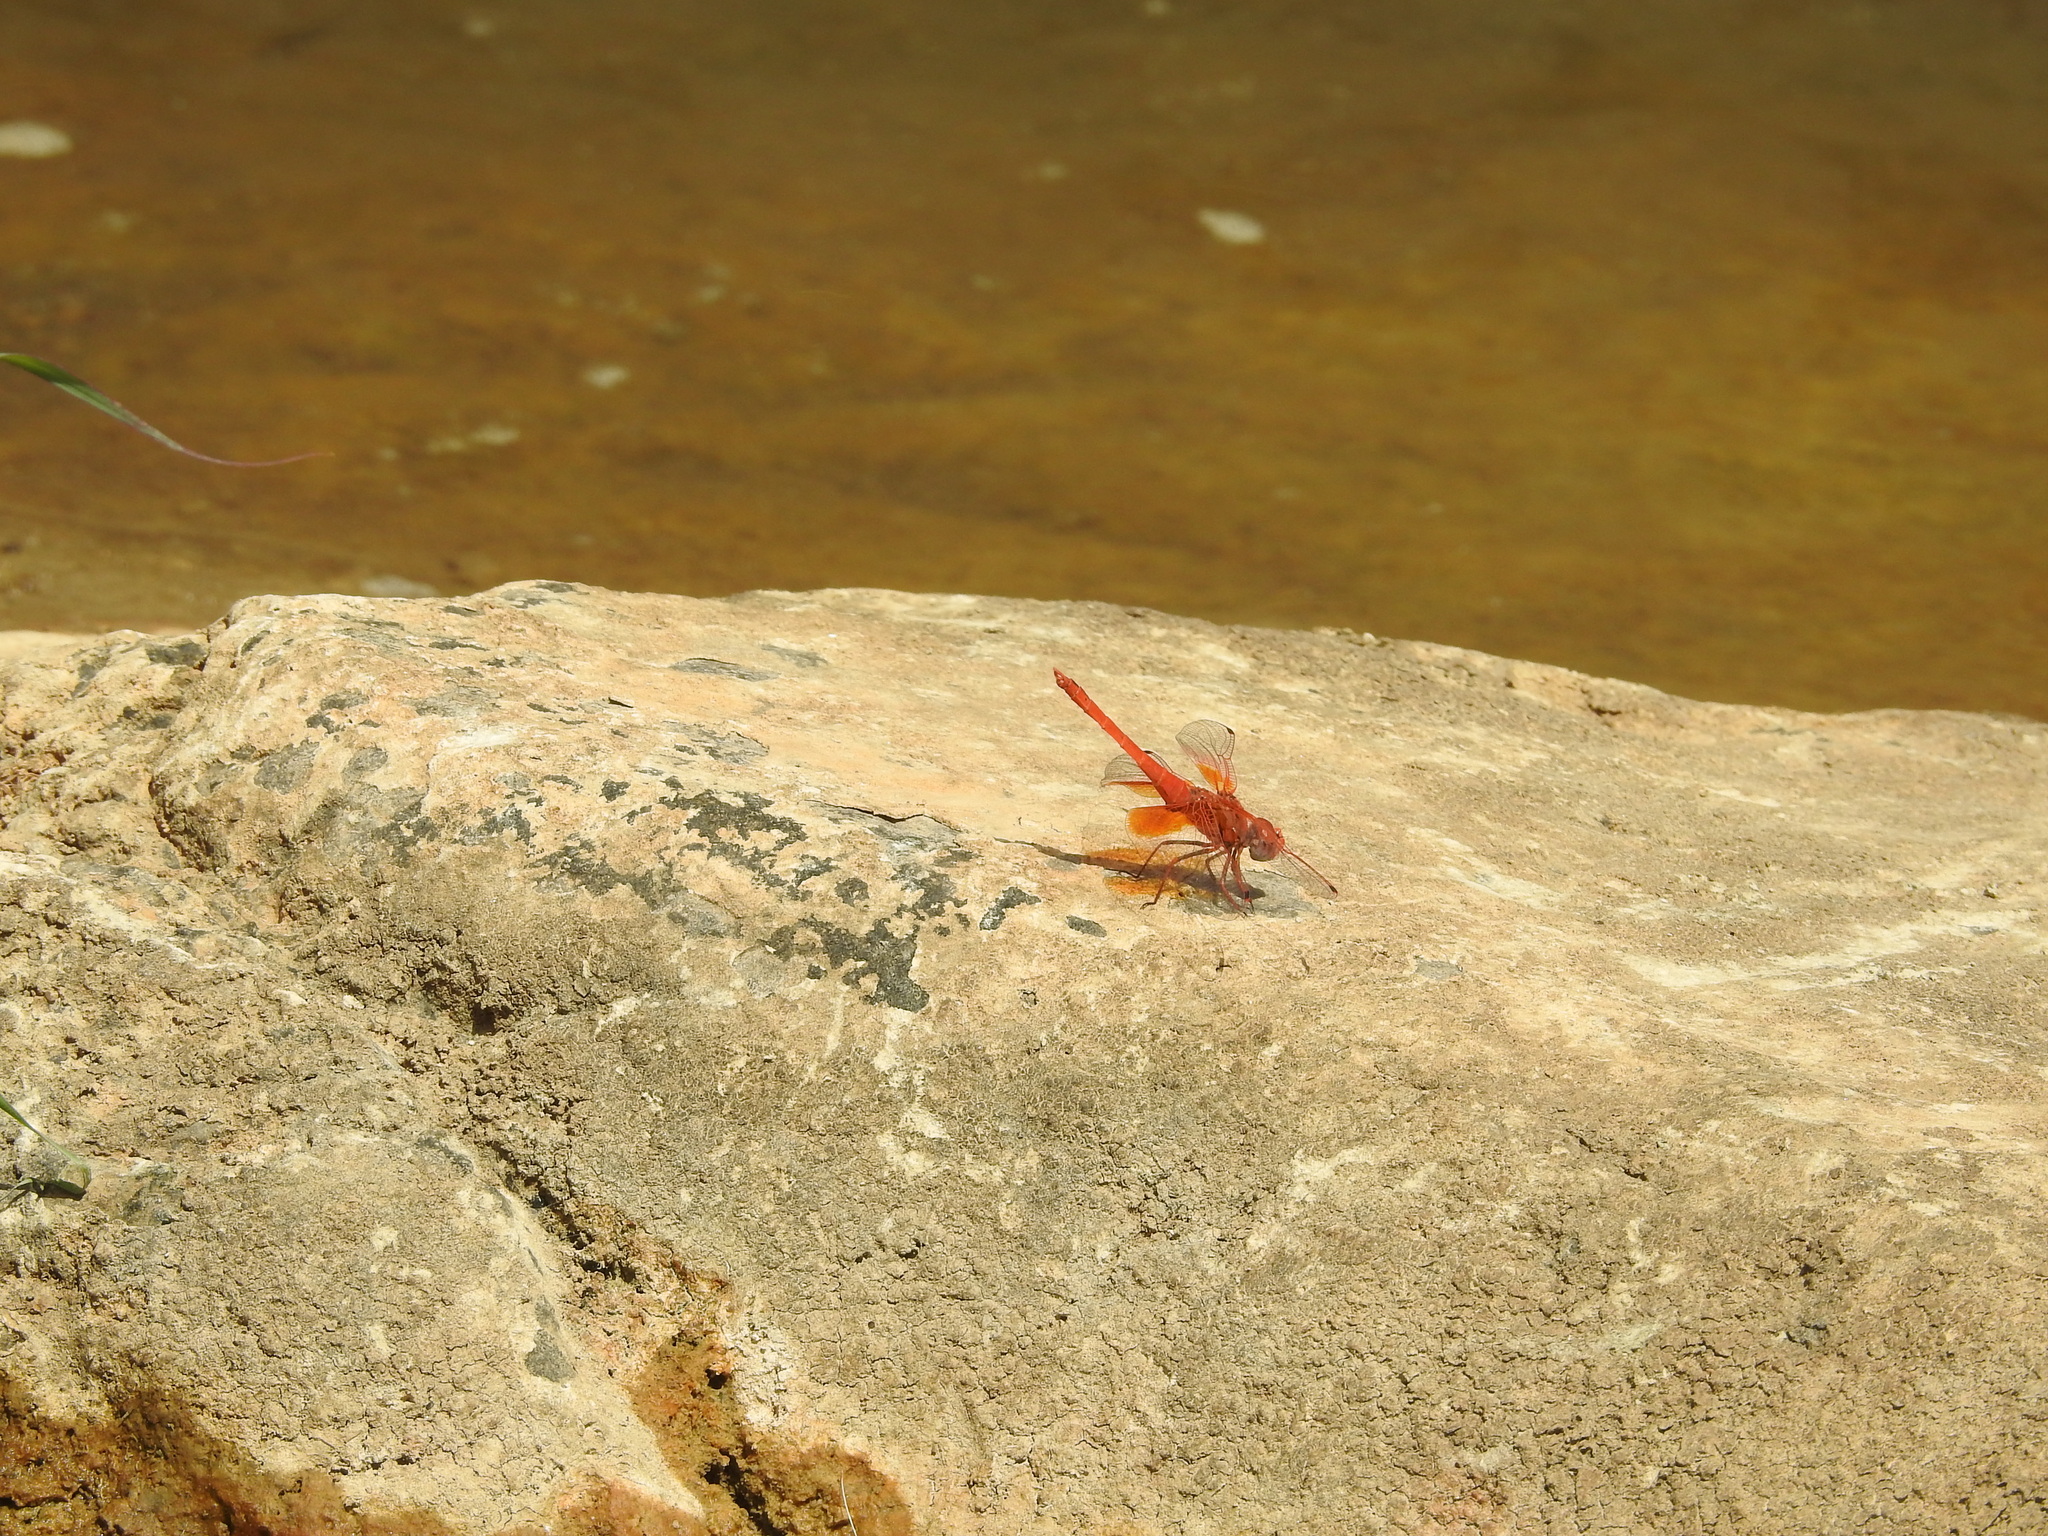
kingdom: Animalia
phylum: Arthropoda
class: Insecta
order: Odonata
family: Libellulidae
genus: Trithemis
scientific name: Trithemis kirbyi
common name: Kirby's dropwing
